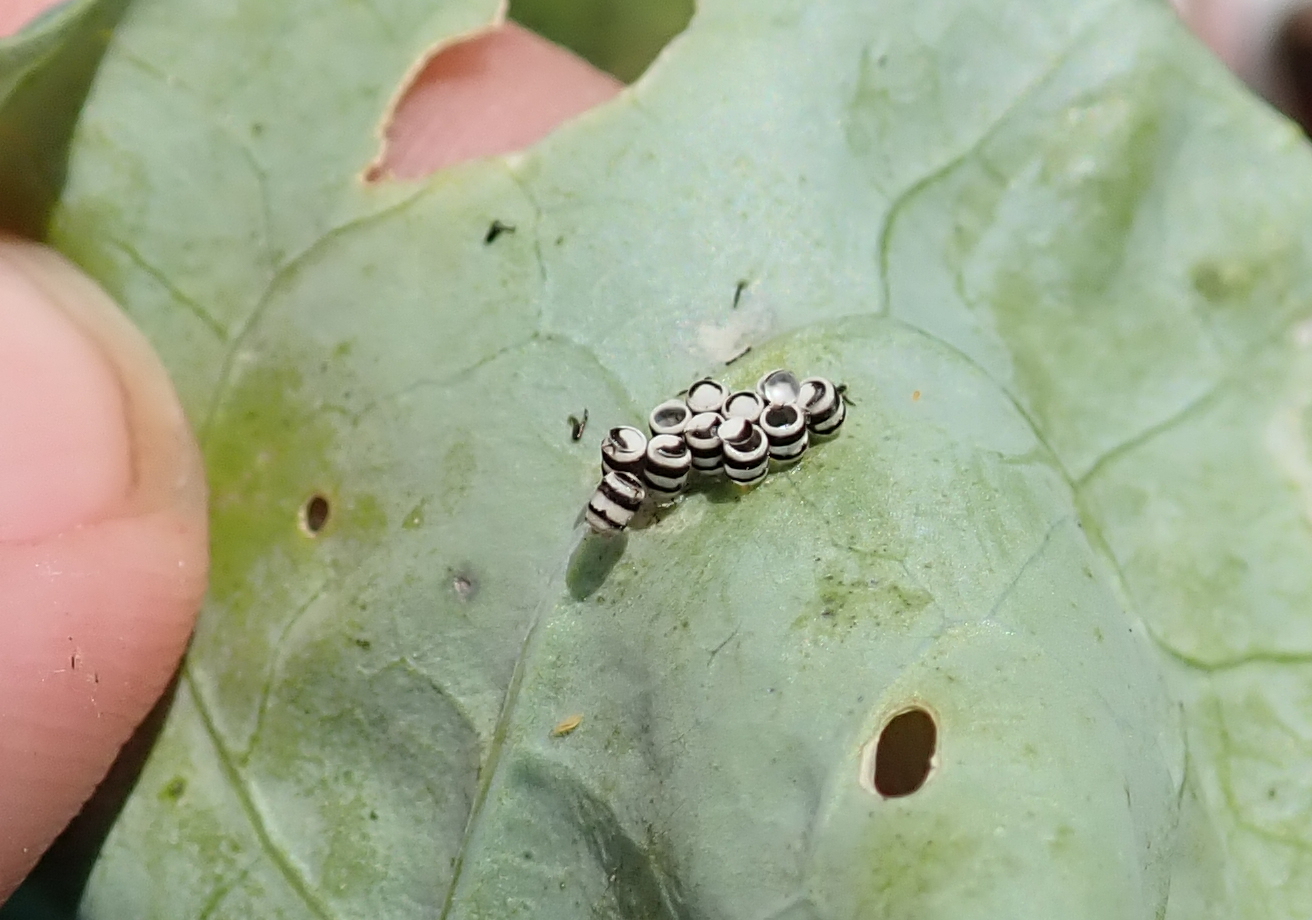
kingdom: Animalia
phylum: Arthropoda
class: Insecta
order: Hemiptera
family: Pentatomidae
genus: Murgantia
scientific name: Murgantia histrionica
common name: Harlequin bug
